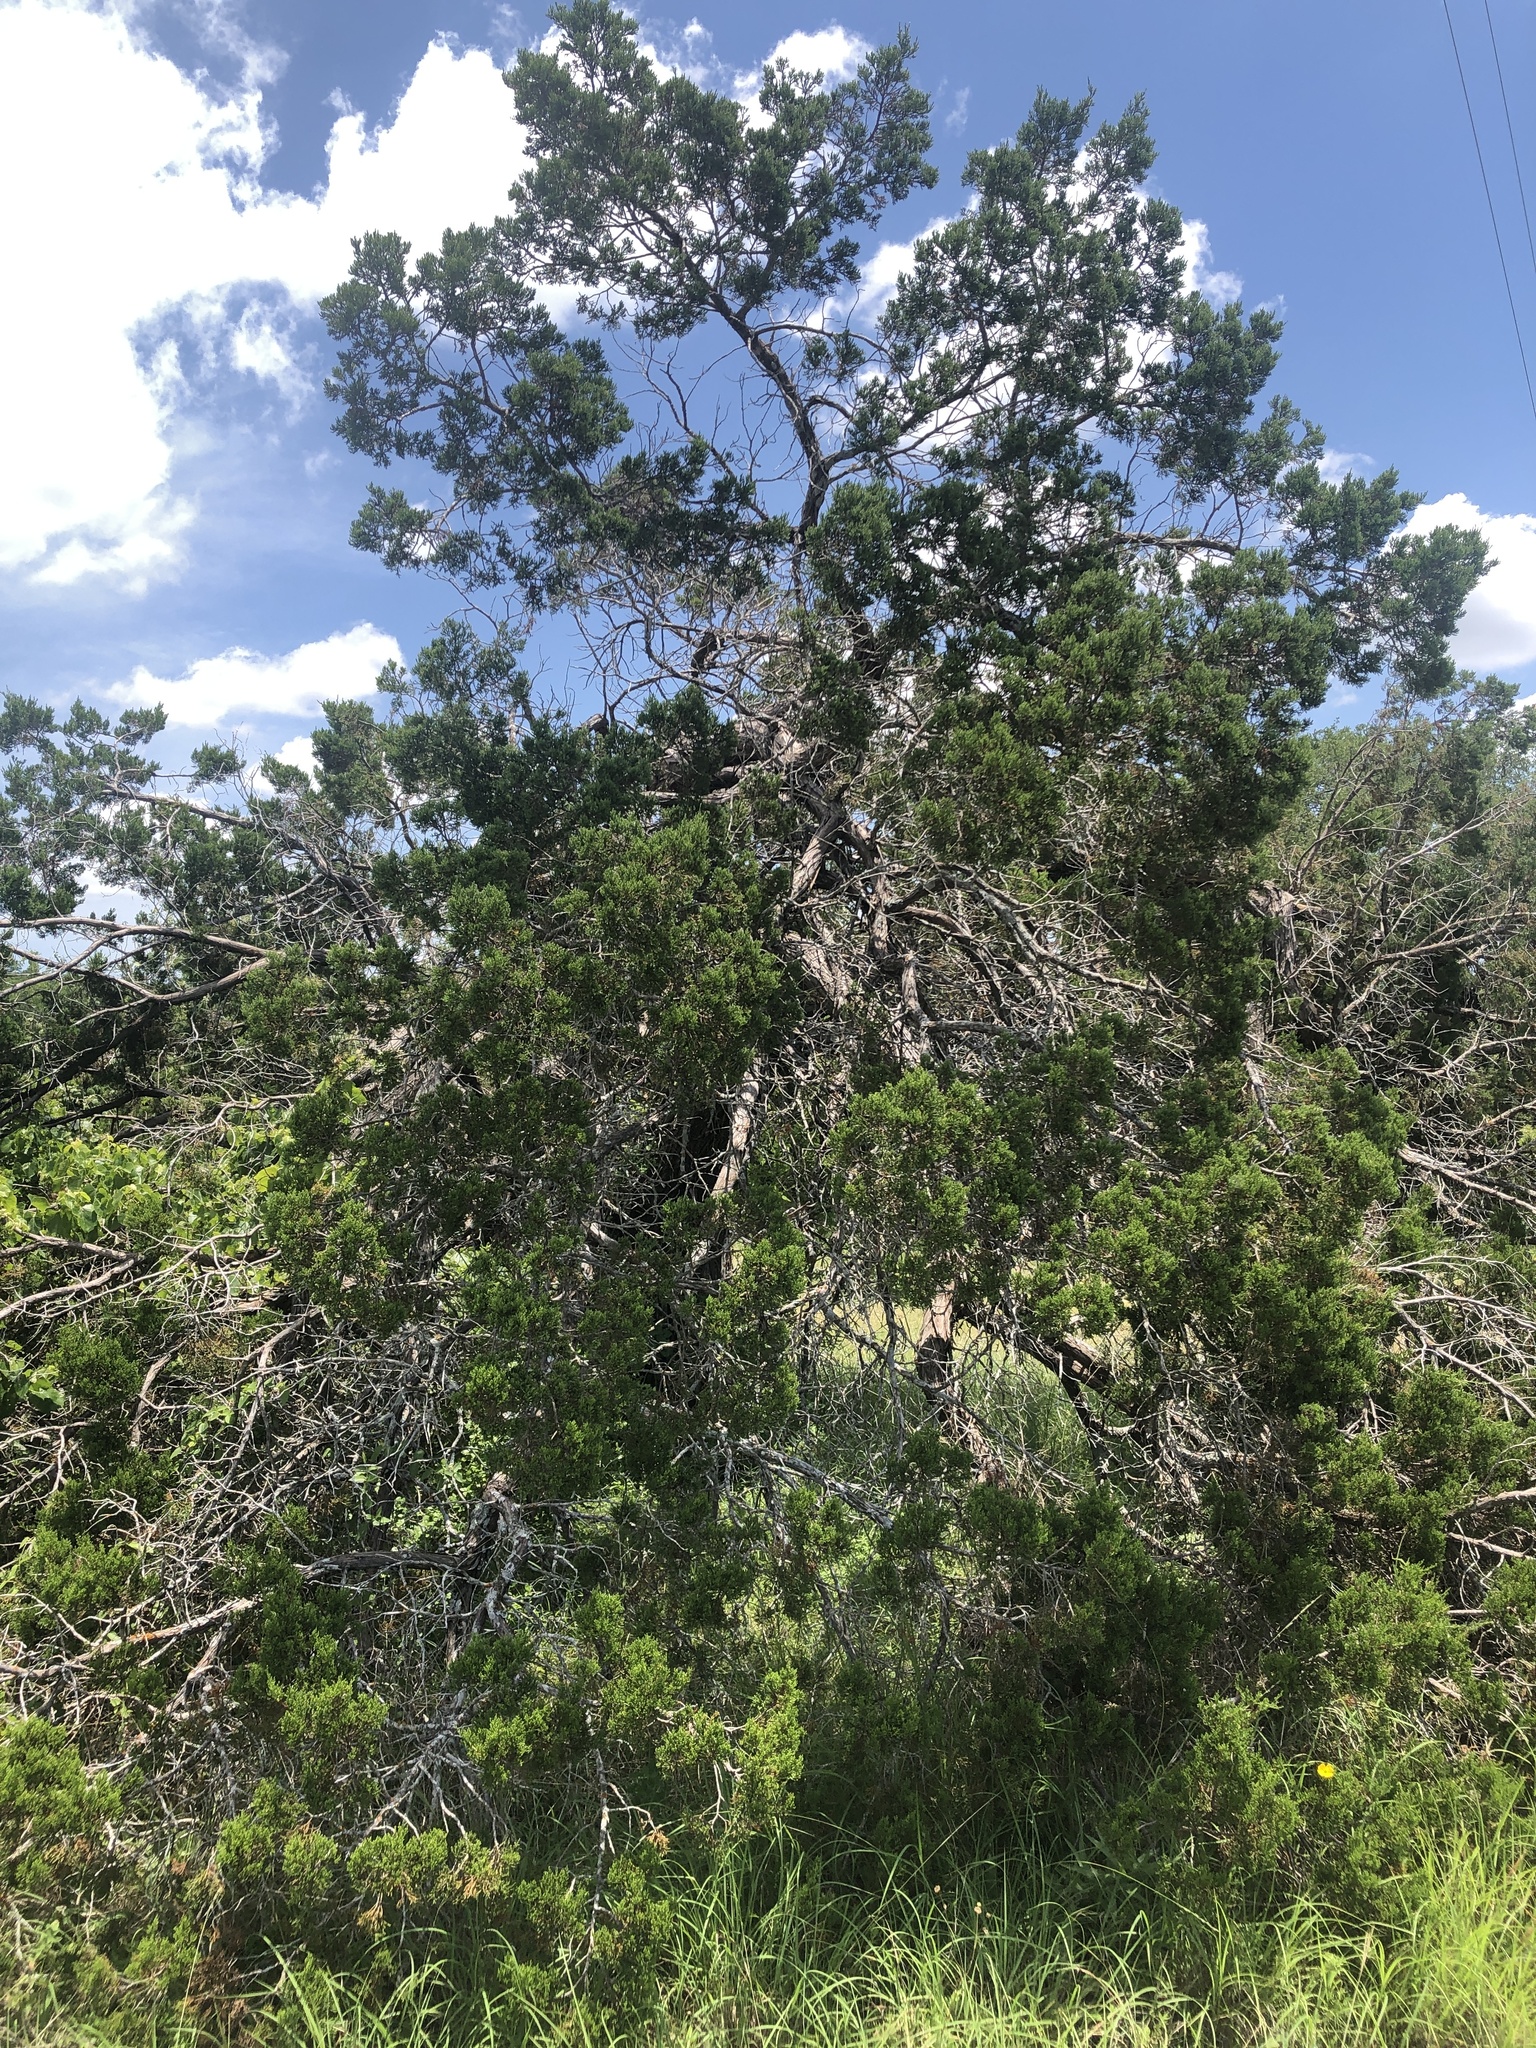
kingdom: Plantae
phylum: Tracheophyta
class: Pinopsida
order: Pinales
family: Cupressaceae
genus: Juniperus
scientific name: Juniperus ashei
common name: Mexican juniper
